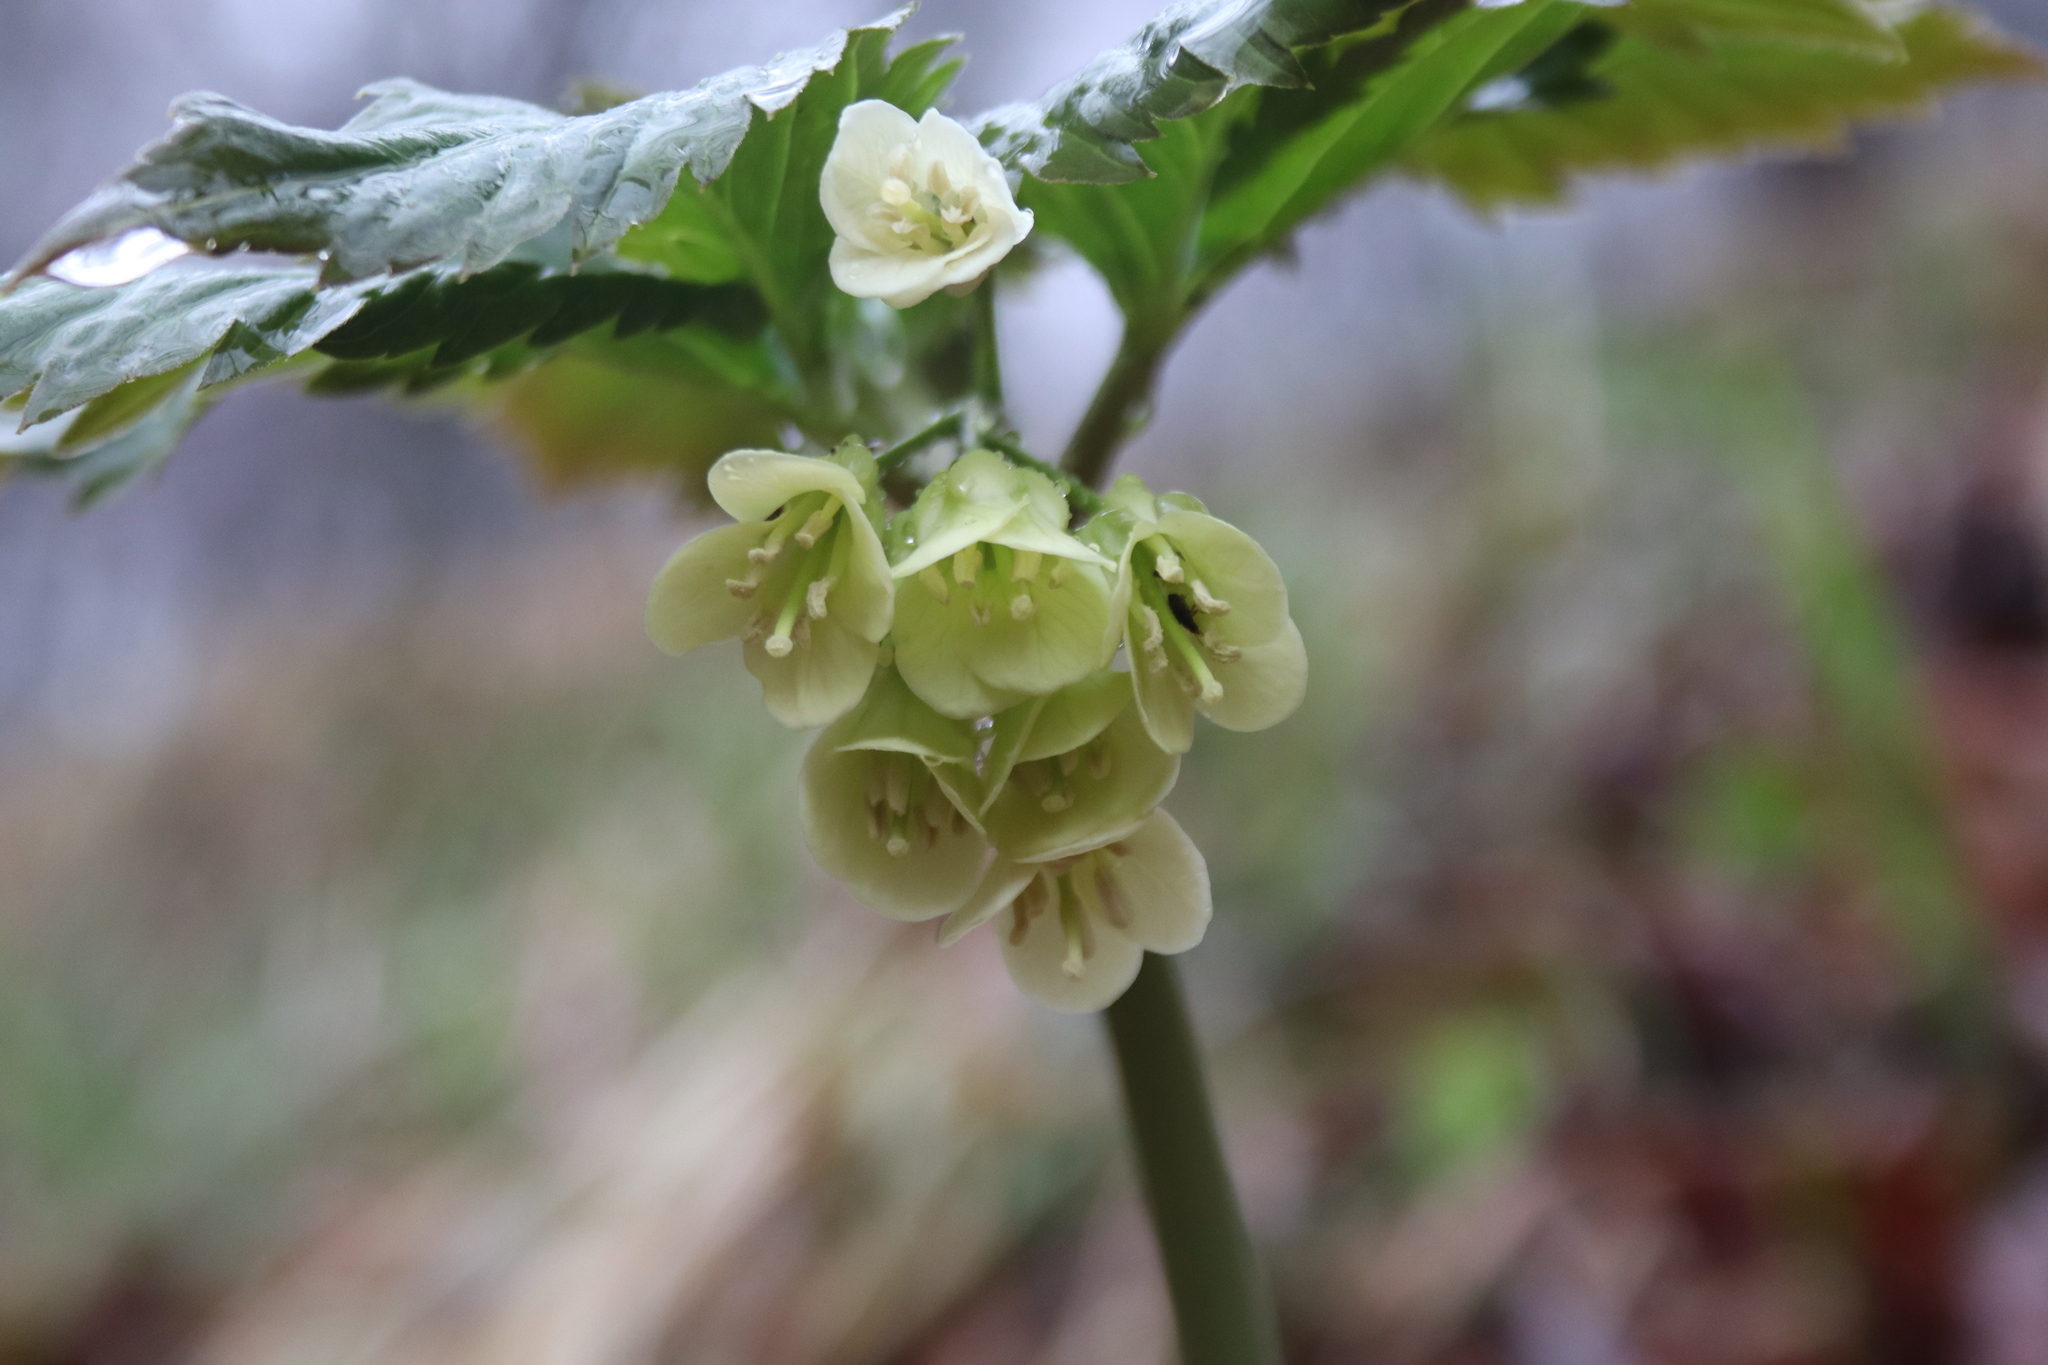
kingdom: Plantae
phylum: Tracheophyta
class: Magnoliopsida
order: Brassicales
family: Brassicaceae
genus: Cardamine
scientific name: Cardamine enneaphyllos
